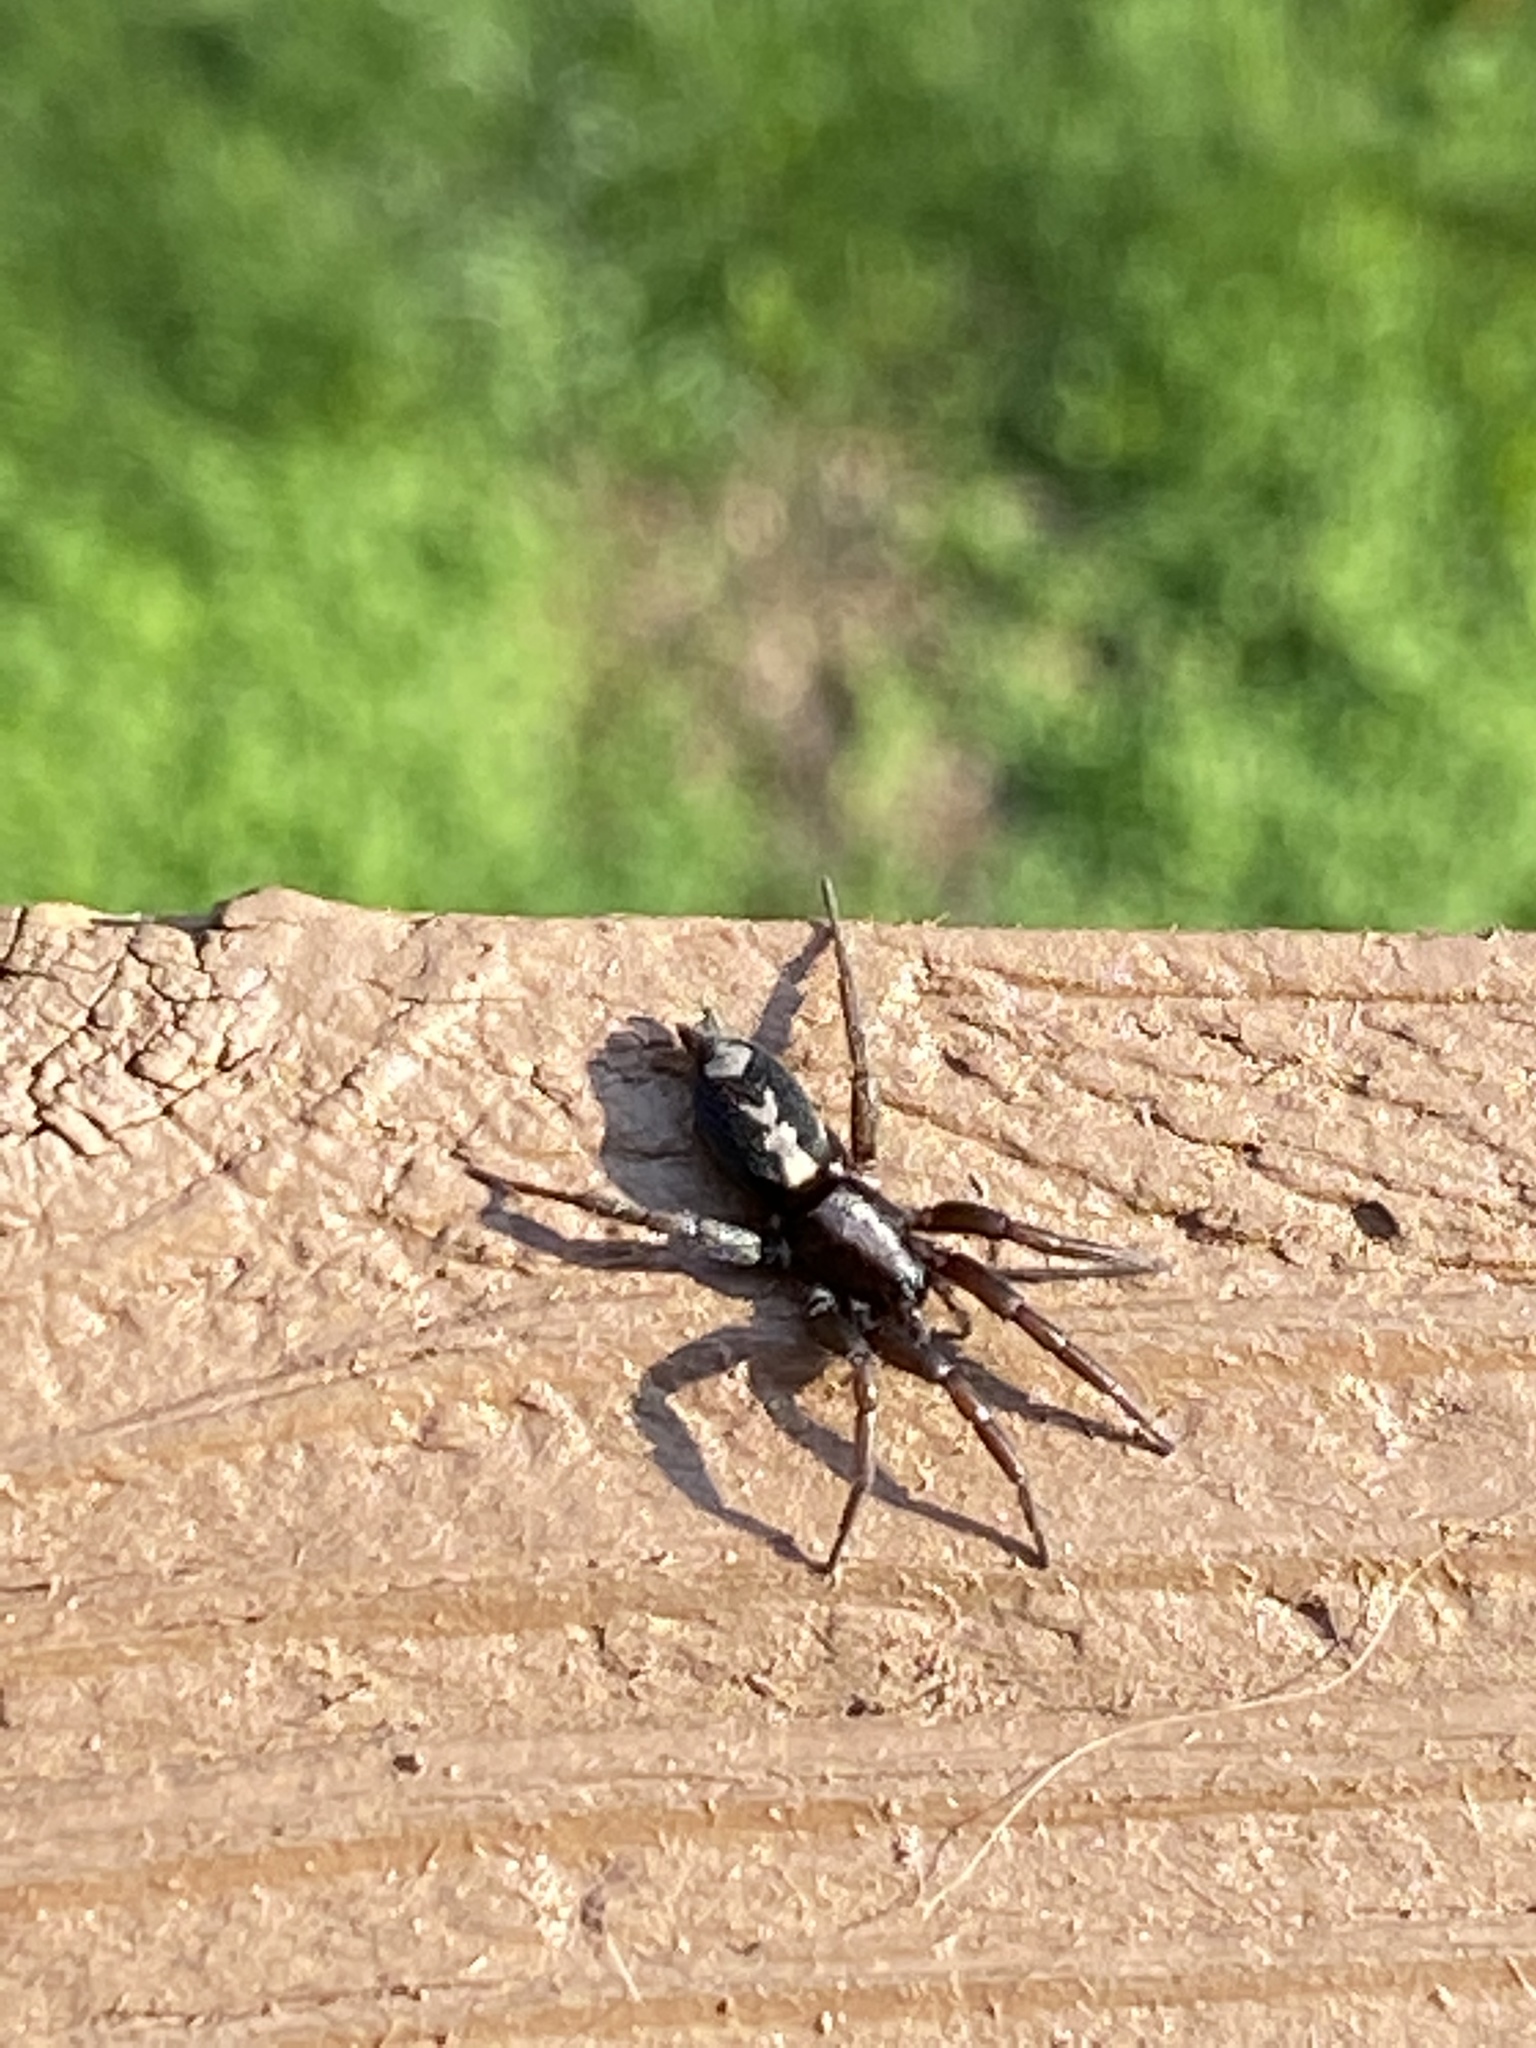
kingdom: Animalia
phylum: Arthropoda
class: Arachnida
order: Araneae
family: Gnaphosidae
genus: Herpyllus
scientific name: Herpyllus ecclesiasticus
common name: Eastern parson spider
